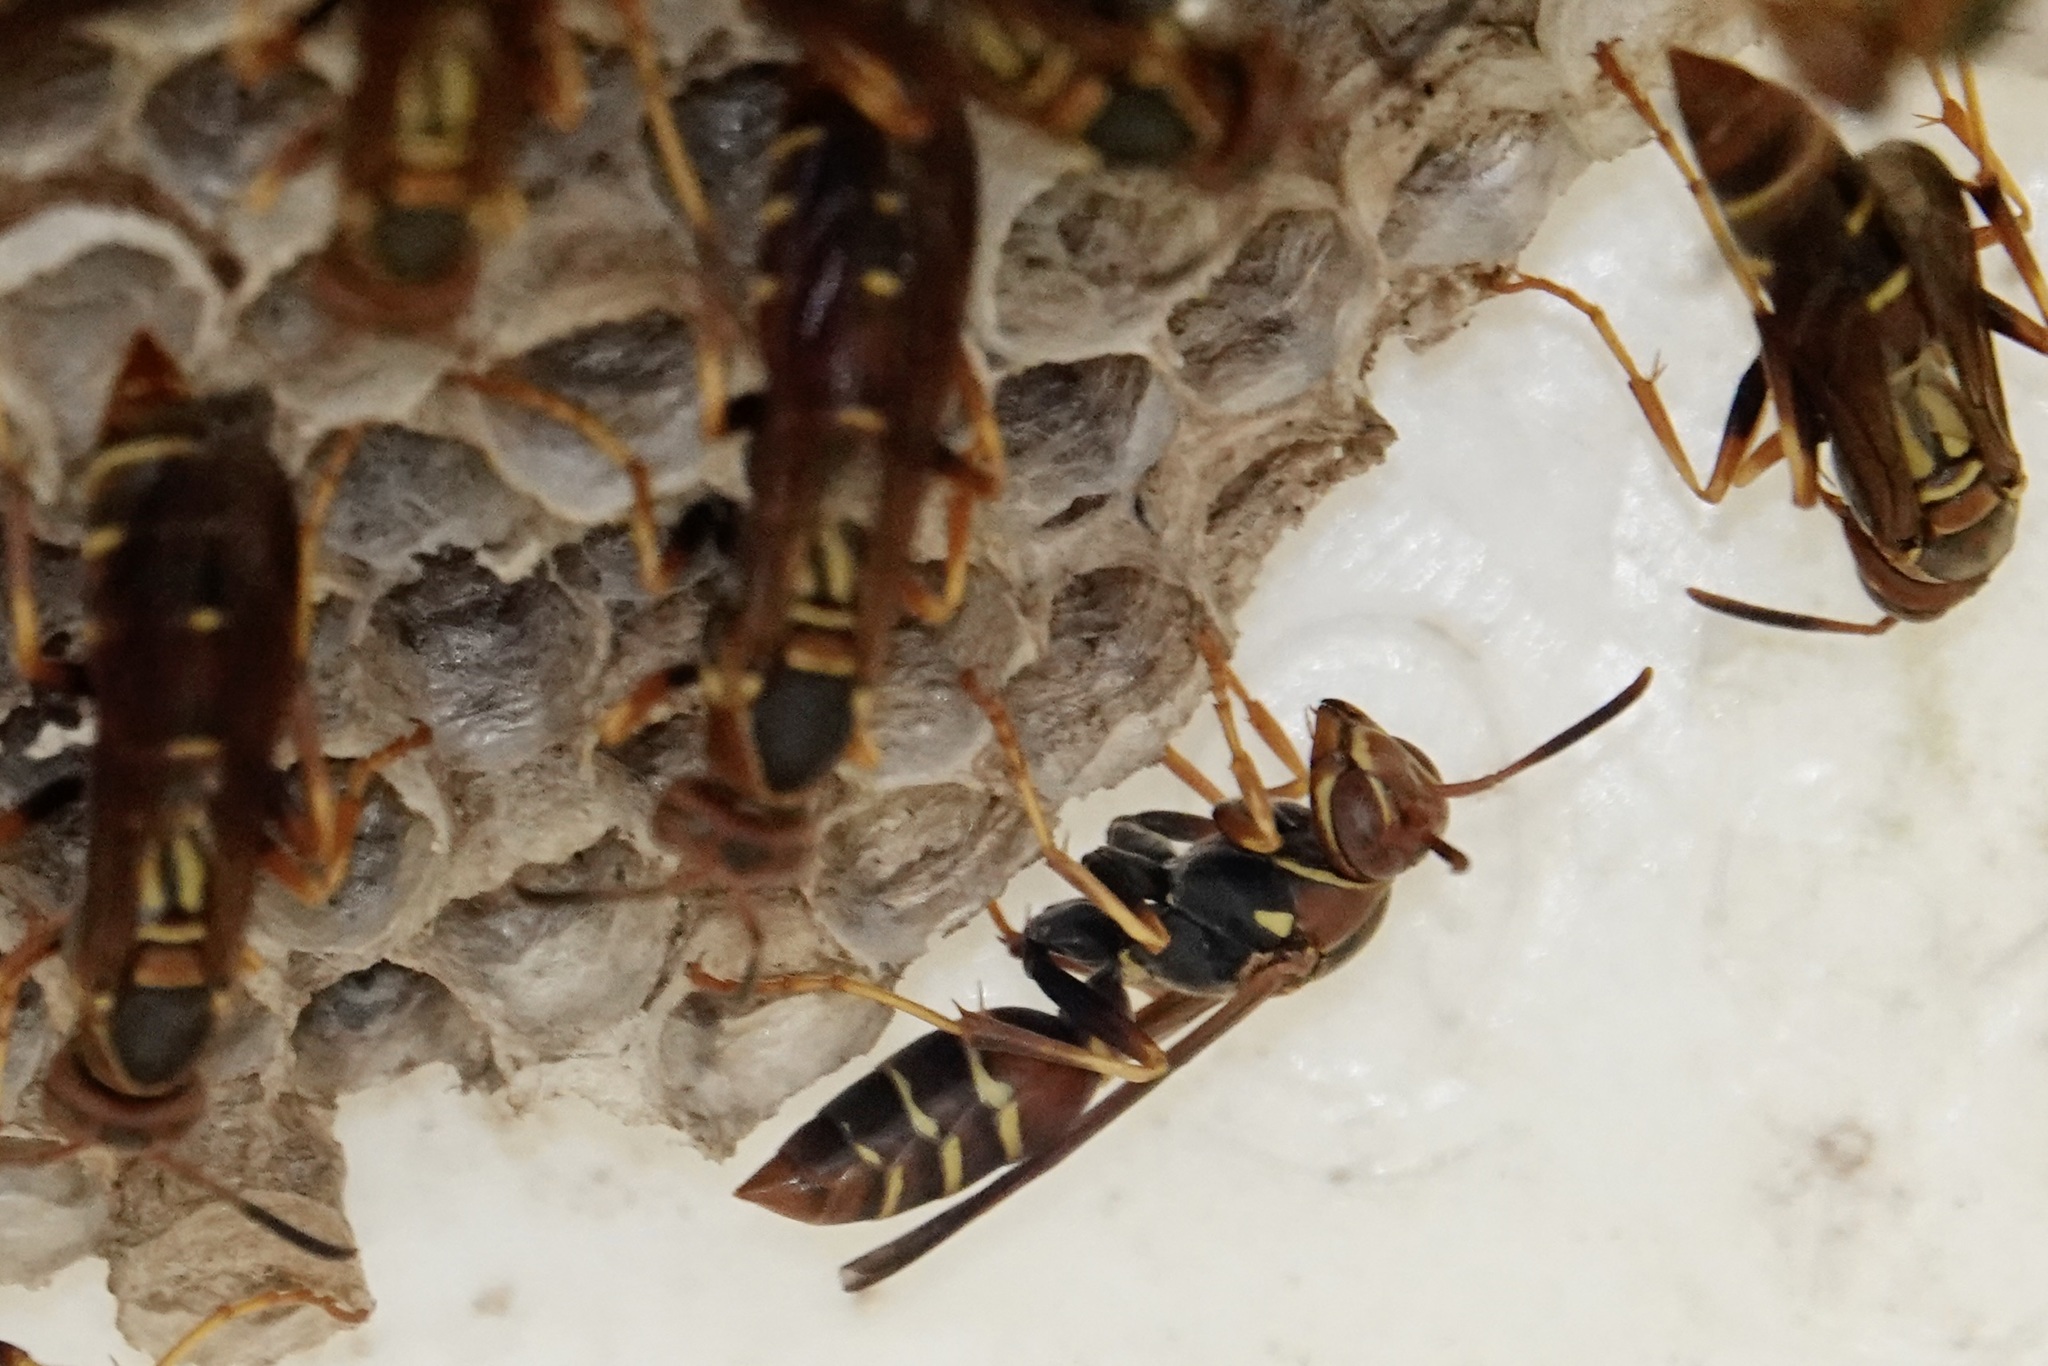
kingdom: Animalia
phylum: Arthropoda
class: Insecta
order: Hymenoptera
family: Eumenidae
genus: Polistes
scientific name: Polistes dorsalis
